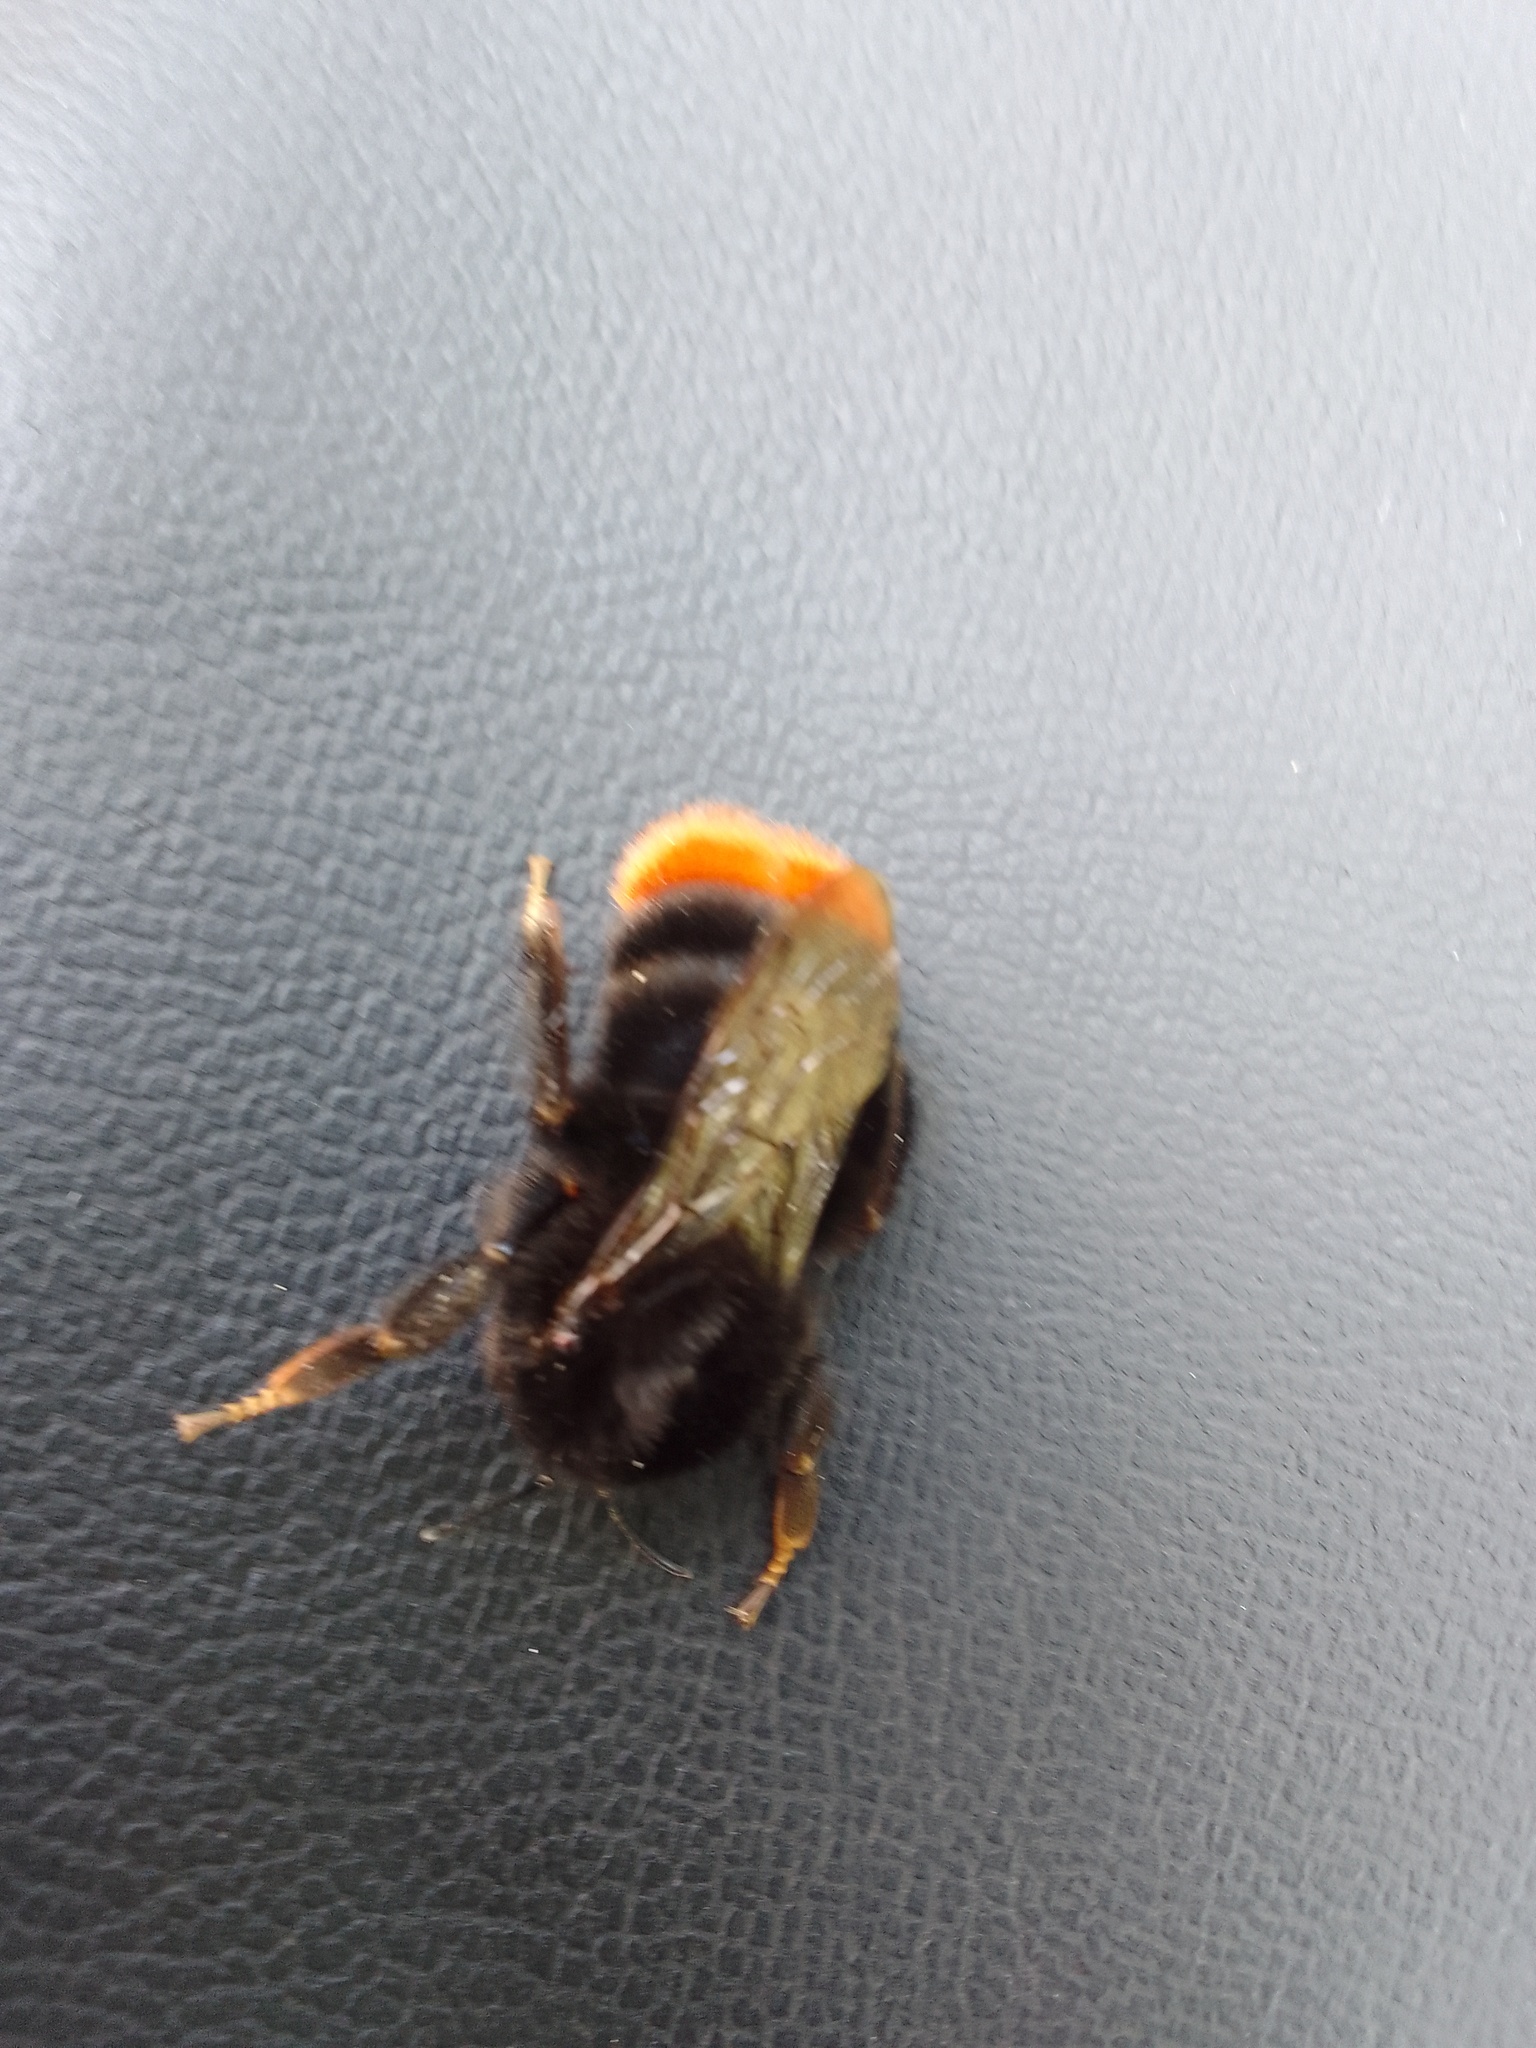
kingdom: Animalia
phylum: Arthropoda
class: Insecta
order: Hymenoptera
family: Apidae
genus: Bombus
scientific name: Bombus lapidarius
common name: Large red-tailed humble-bee
